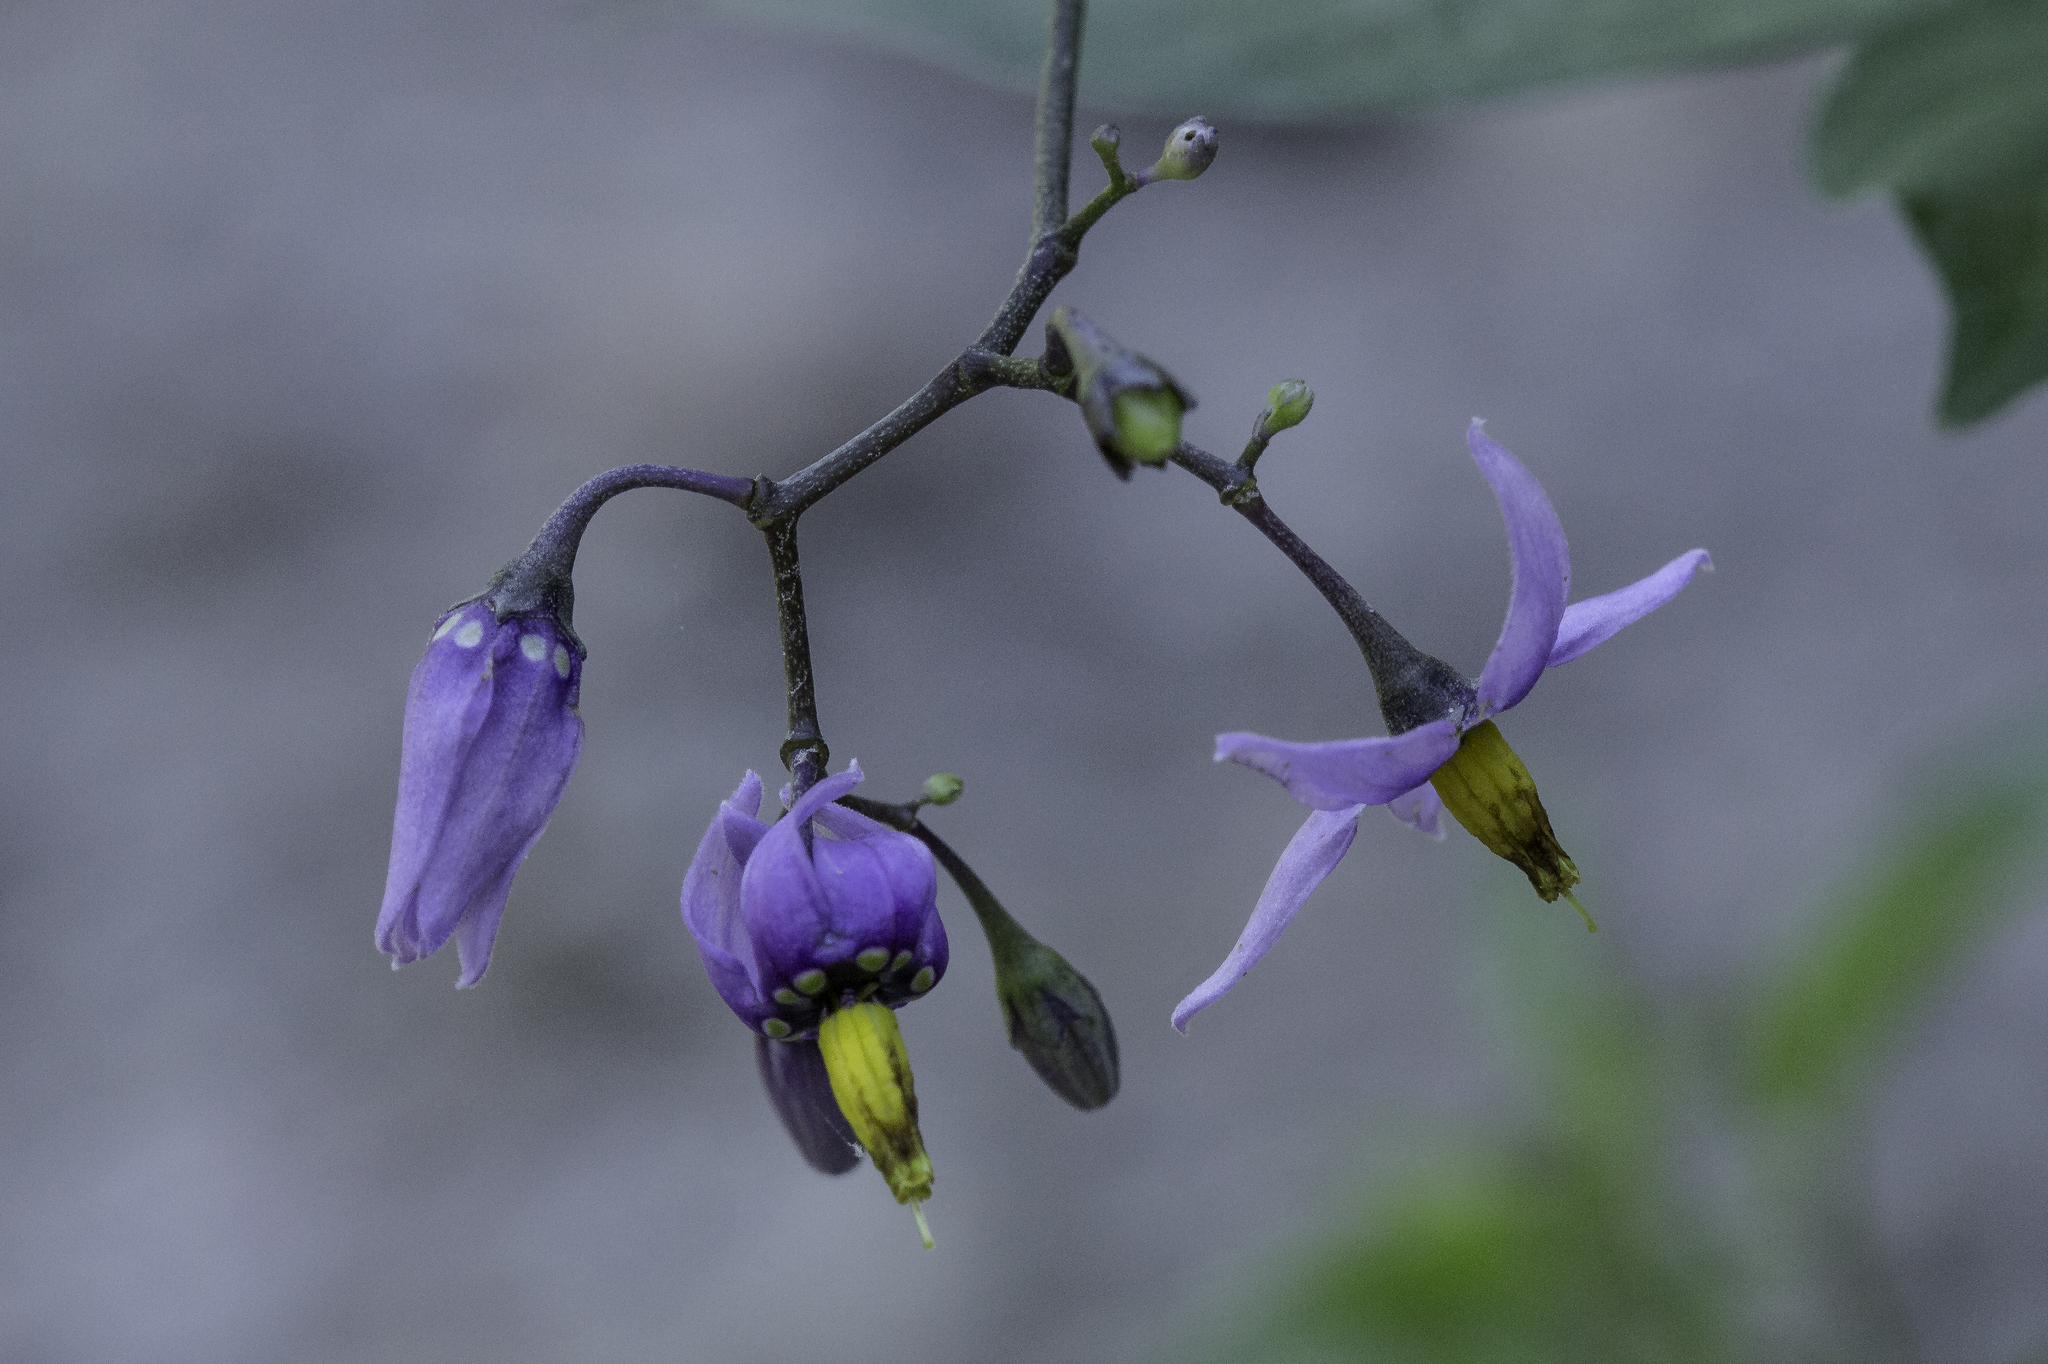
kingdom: Plantae
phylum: Tracheophyta
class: Magnoliopsida
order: Solanales
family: Solanaceae
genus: Solanum
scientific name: Solanum dulcamara
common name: Climbing nightshade
